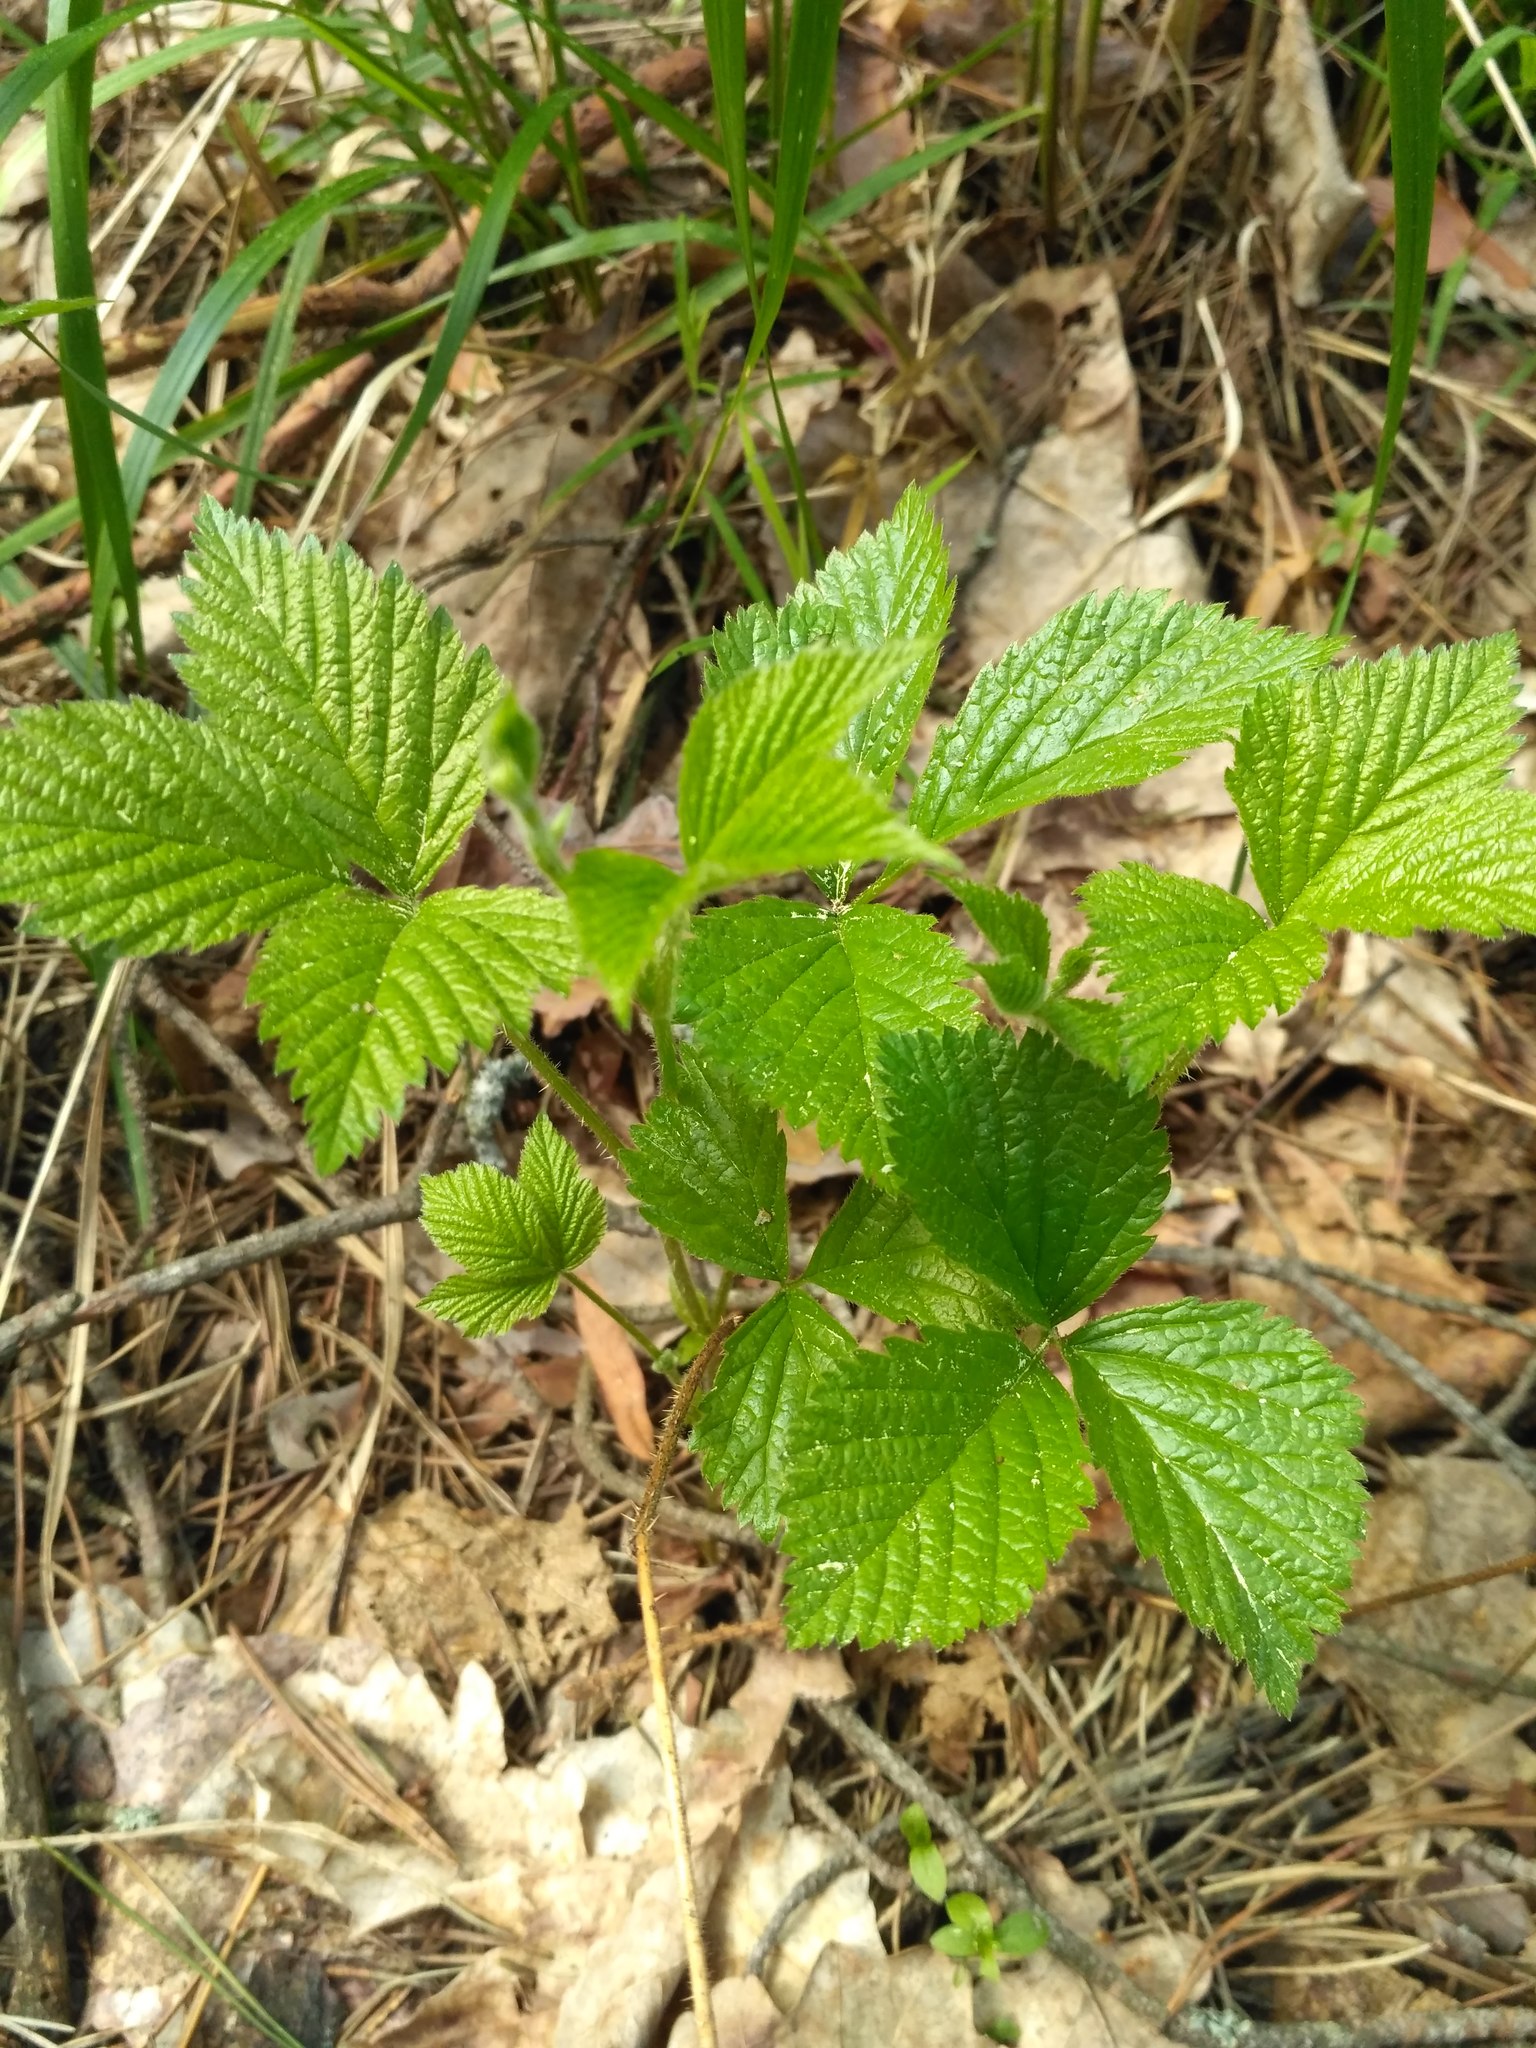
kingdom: Plantae
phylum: Tracheophyta
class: Magnoliopsida
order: Rosales
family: Rosaceae
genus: Rubus
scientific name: Rubus saxatilis
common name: Stone bramble
